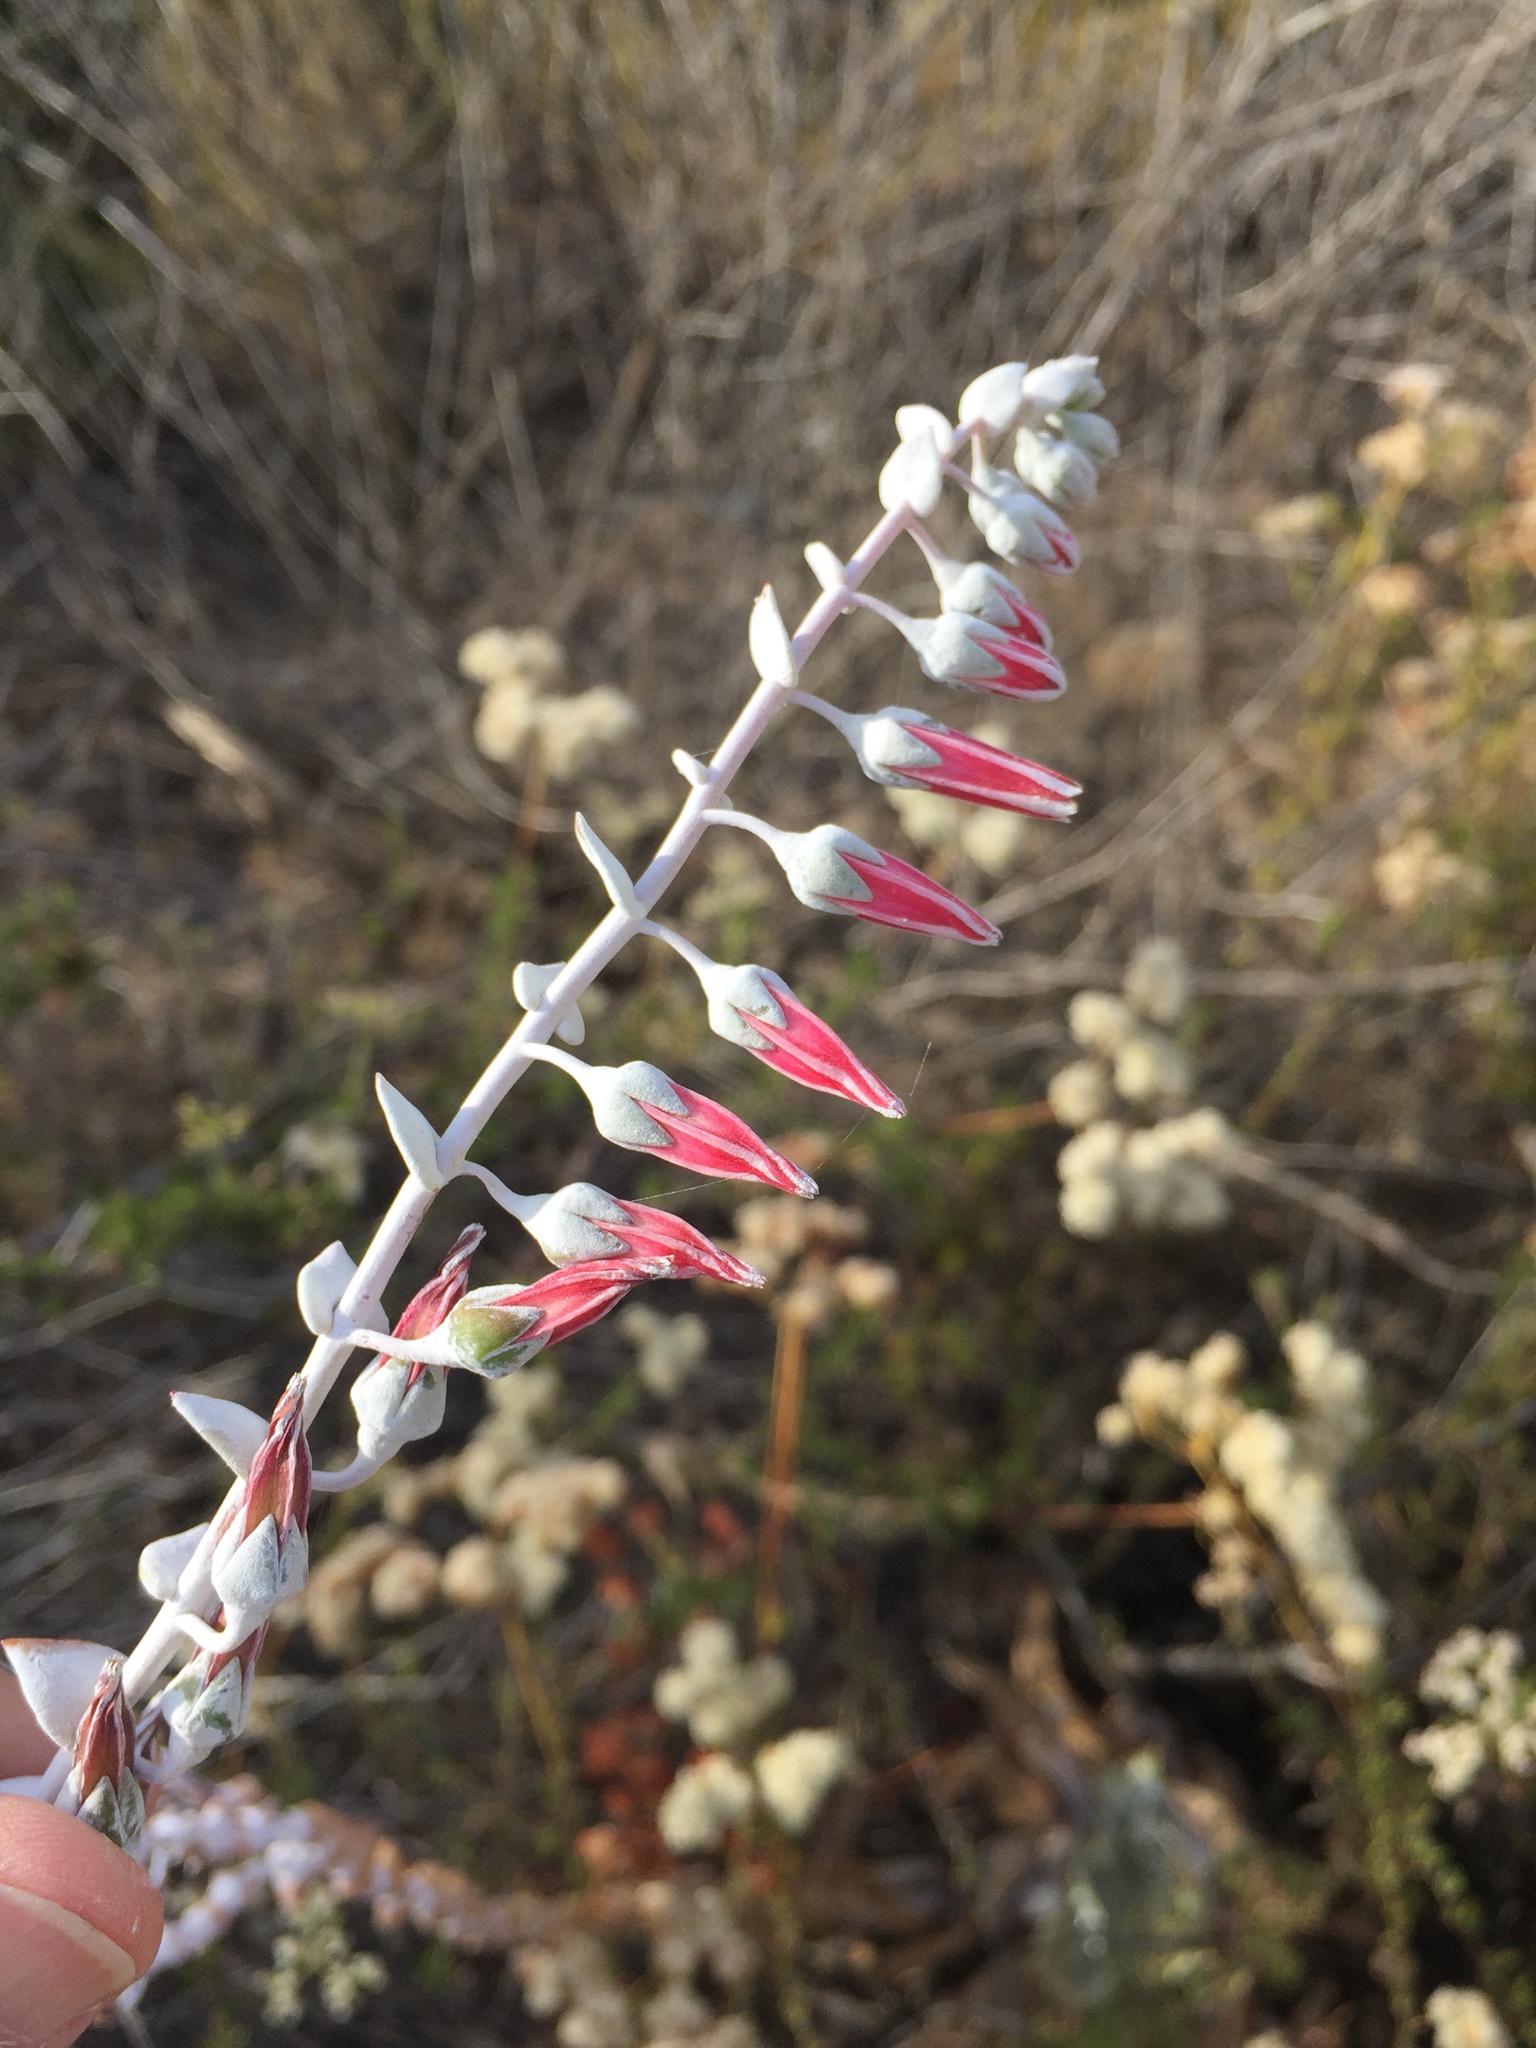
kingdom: Plantae
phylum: Tracheophyta
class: Magnoliopsida
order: Saxifragales
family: Crassulaceae
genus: Dudleya
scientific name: Dudleya pulverulenta
